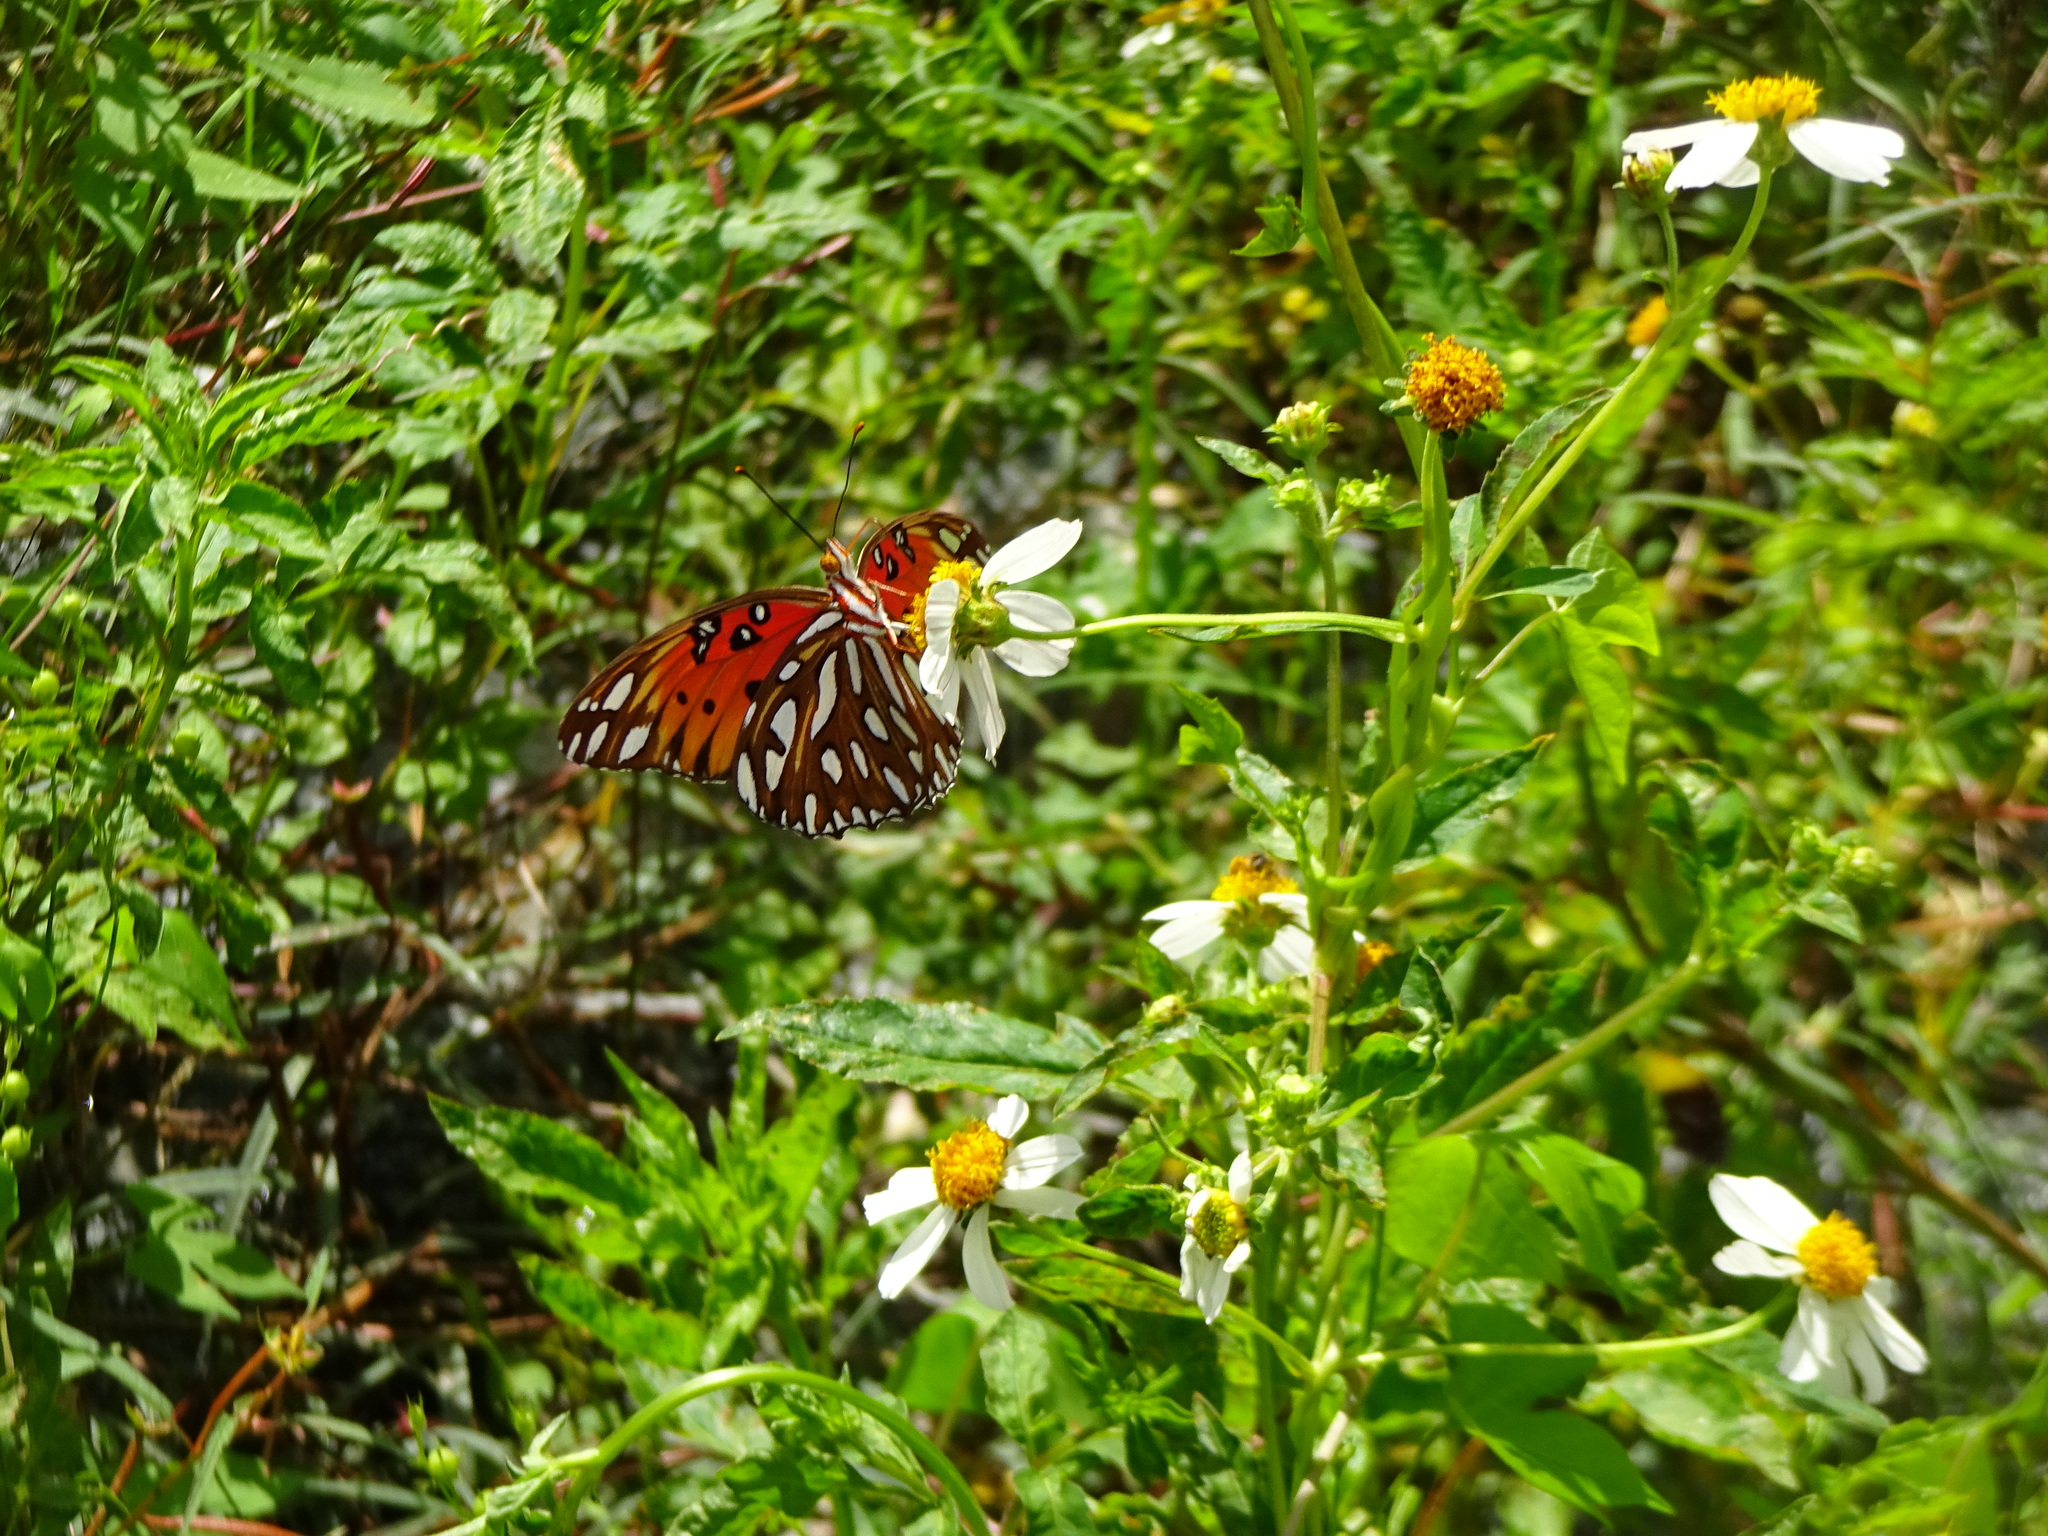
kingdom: Animalia
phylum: Arthropoda
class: Insecta
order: Lepidoptera
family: Nymphalidae
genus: Dione
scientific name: Dione vanillae
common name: Gulf fritillary
